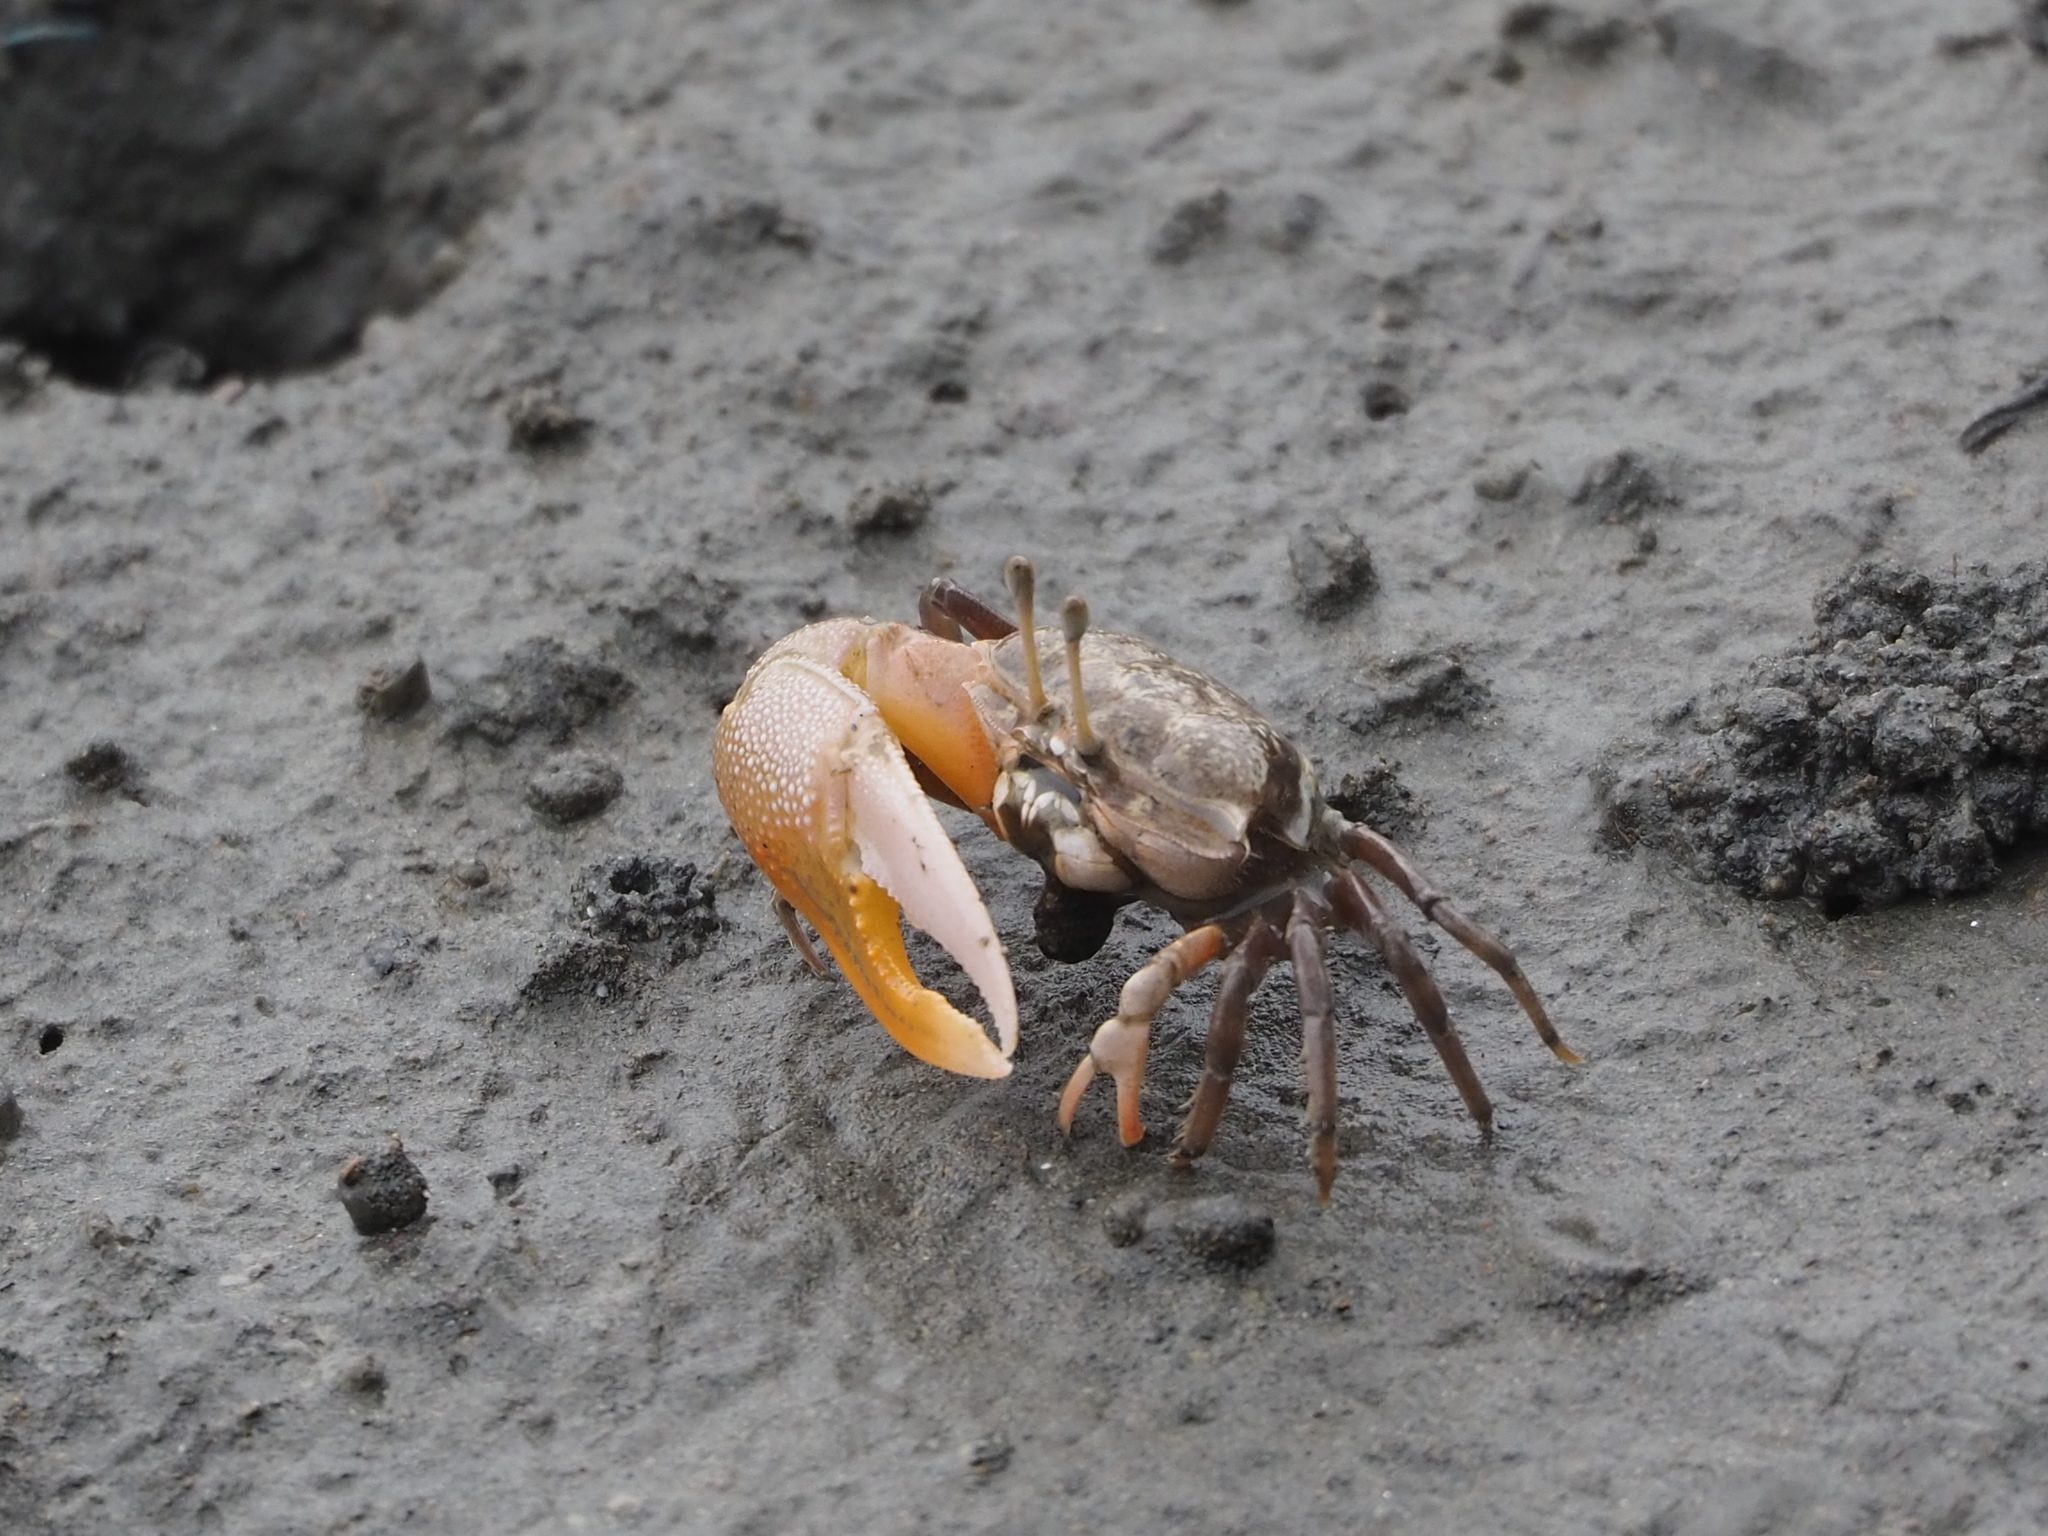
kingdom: Animalia
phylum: Arthropoda
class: Malacostraca
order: Decapoda
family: Ocypodidae
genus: Gelasimus
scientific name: Gelasimus borealis
